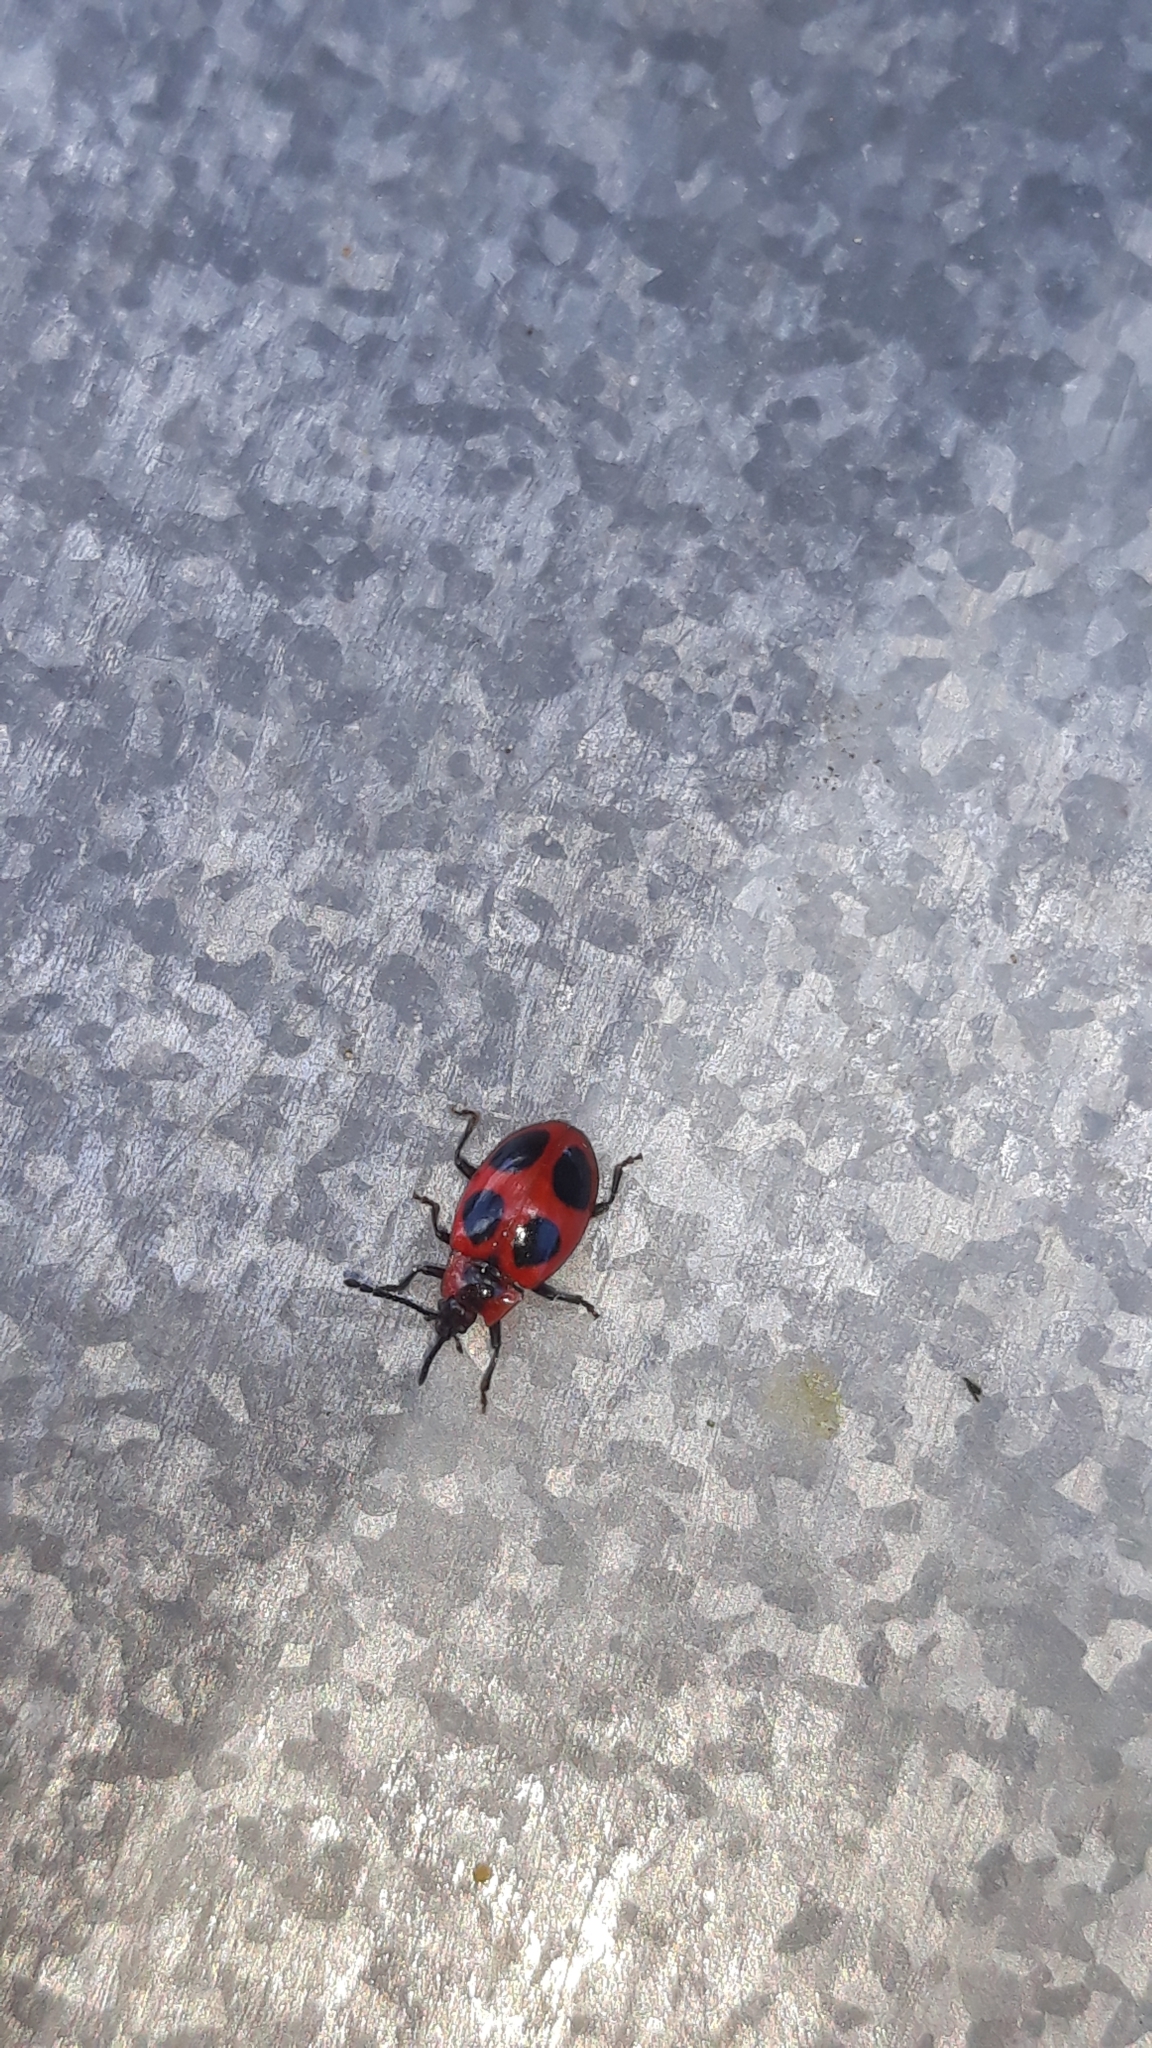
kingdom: Animalia
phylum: Arthropoda
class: Insecta
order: Coleoptera
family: Endomychidae
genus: Endomychus
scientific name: Endomychus coccineus
